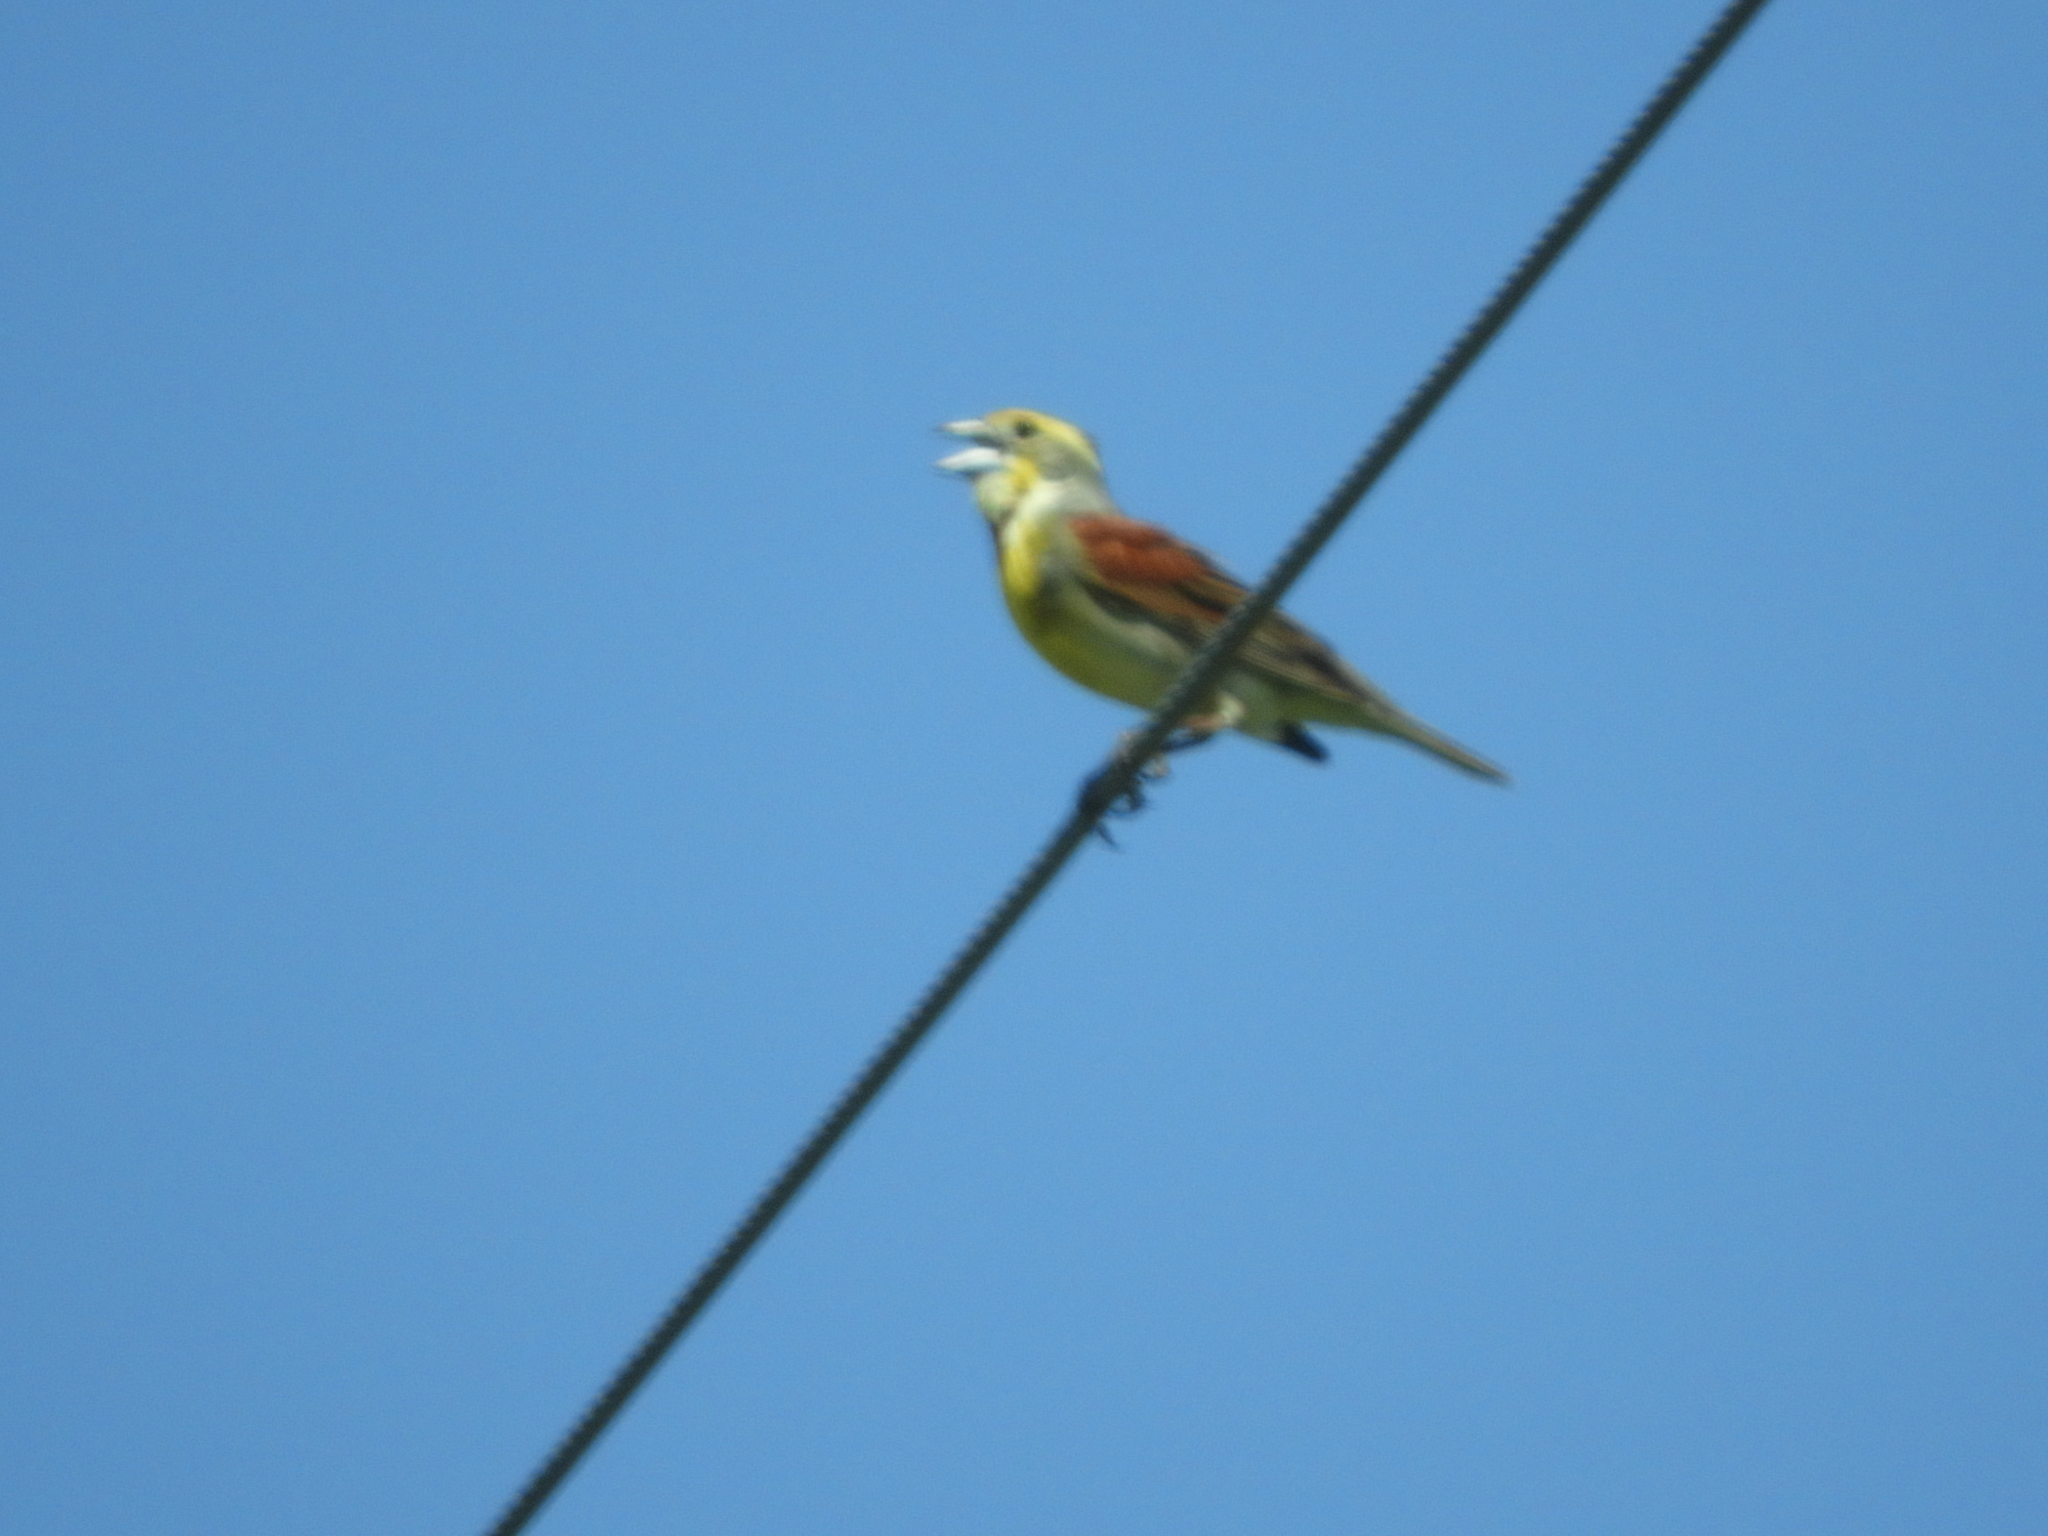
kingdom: Animalia
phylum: Chordata
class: Aves
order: Passeriformes
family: Cardinalidae
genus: Spiza
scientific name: Spiza americana
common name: Dickcissel
